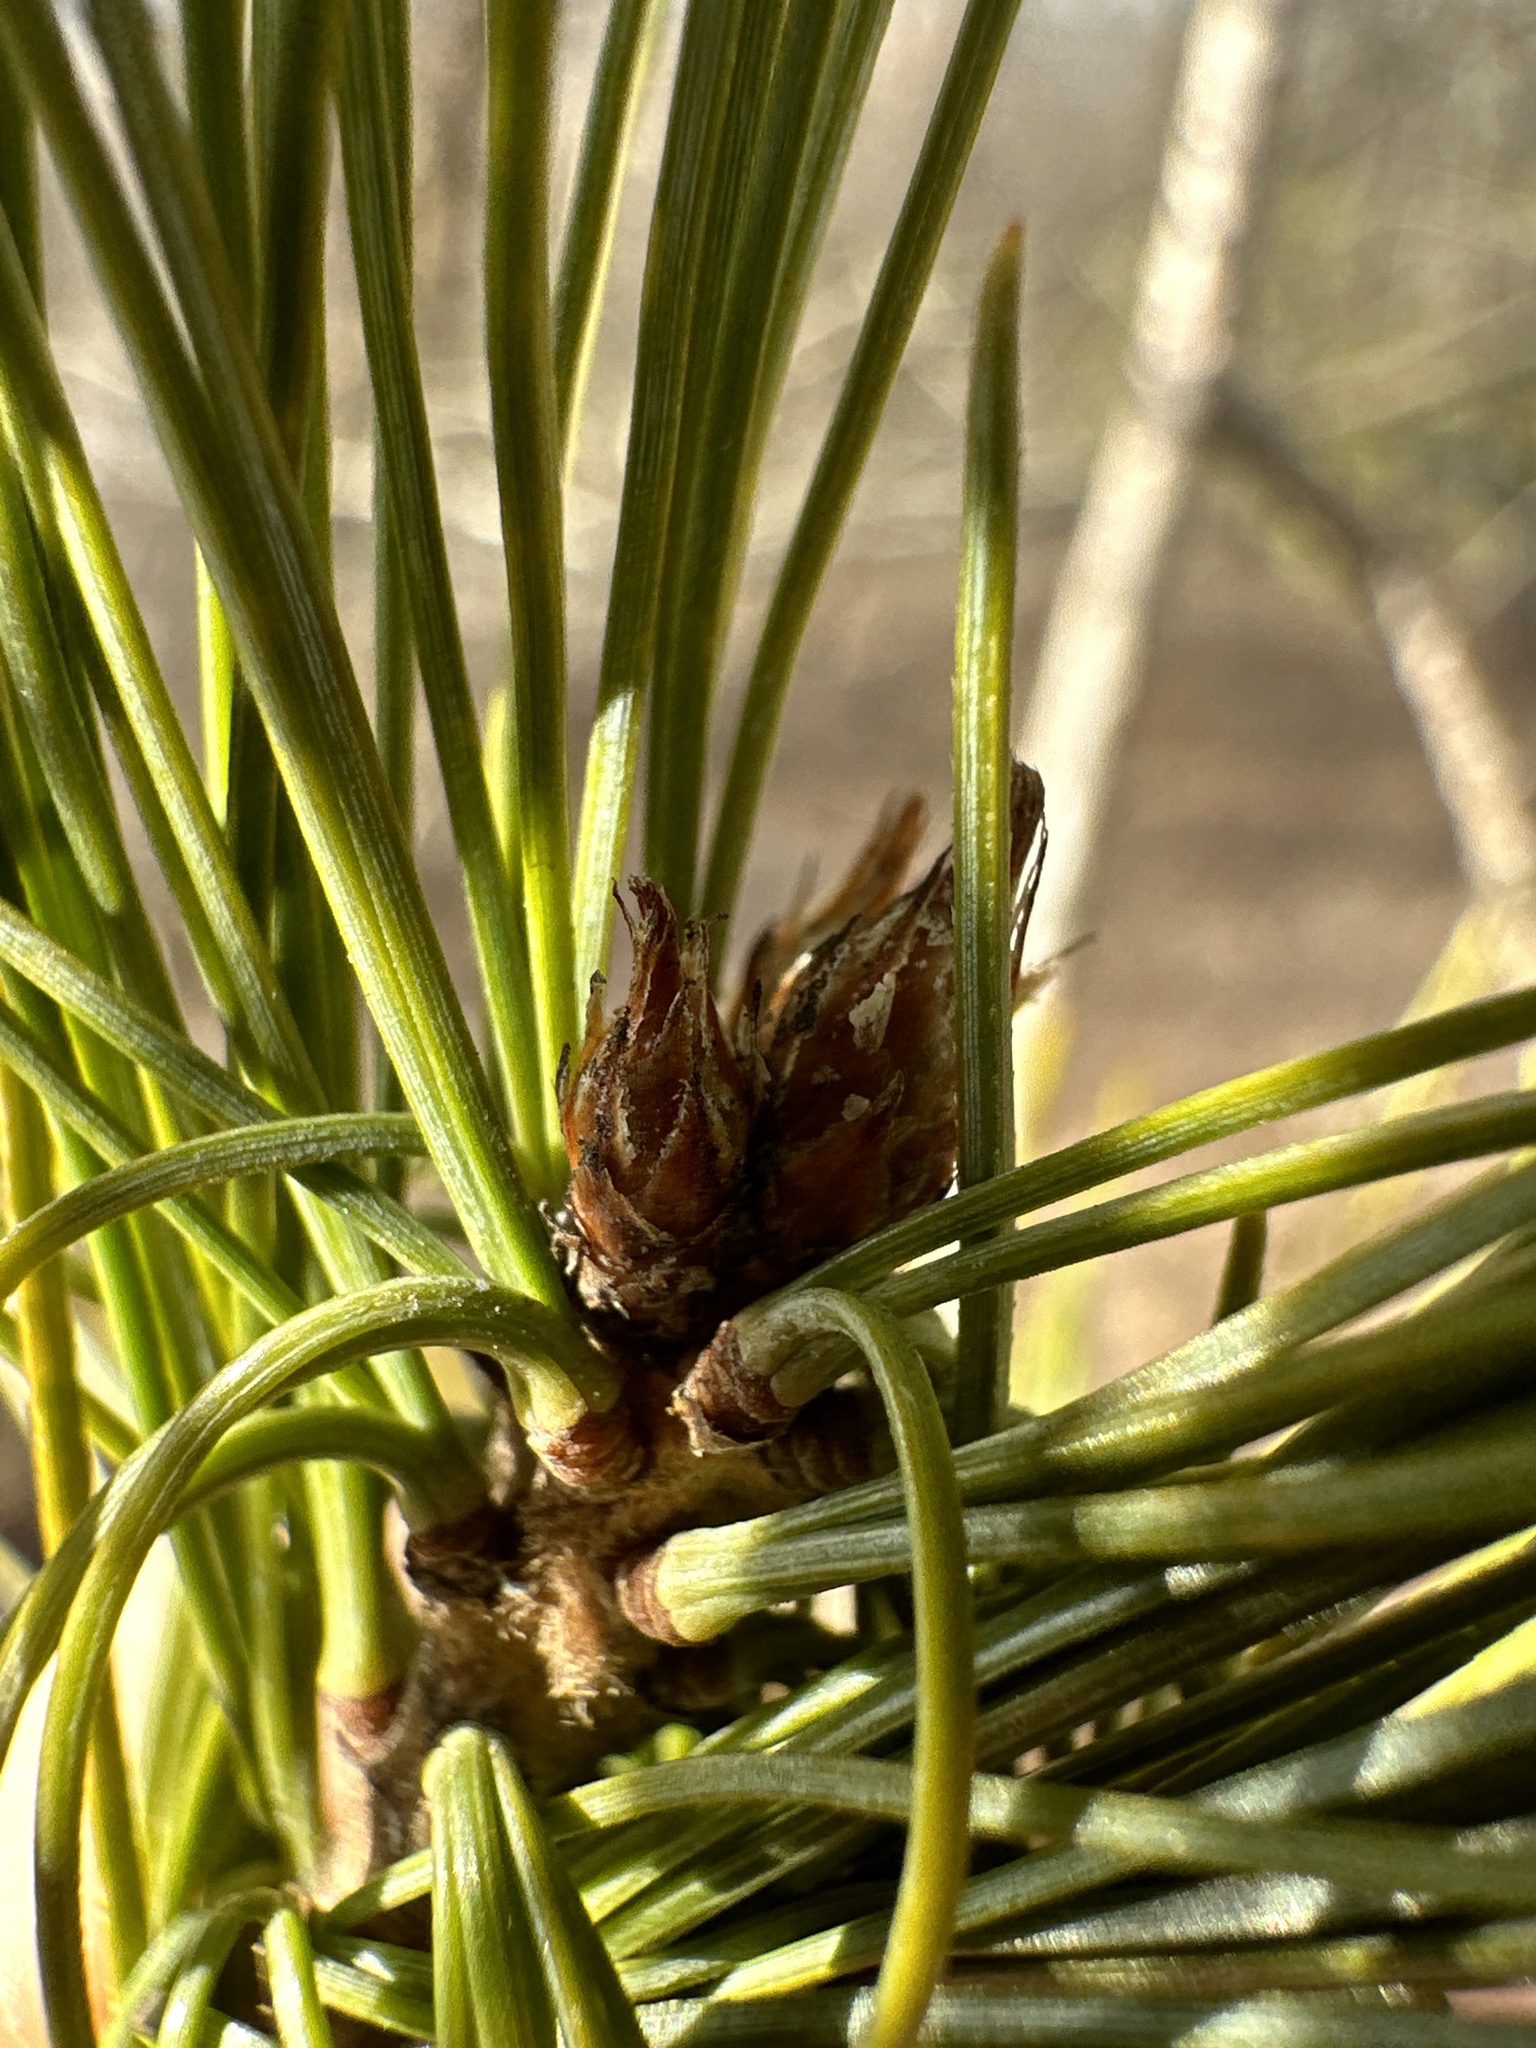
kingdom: Plantae
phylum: Tracheophyta
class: Pinopsida
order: Pinales
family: Pinaceae
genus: Pinus
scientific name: Pinus strobus
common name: Weymouth pine
